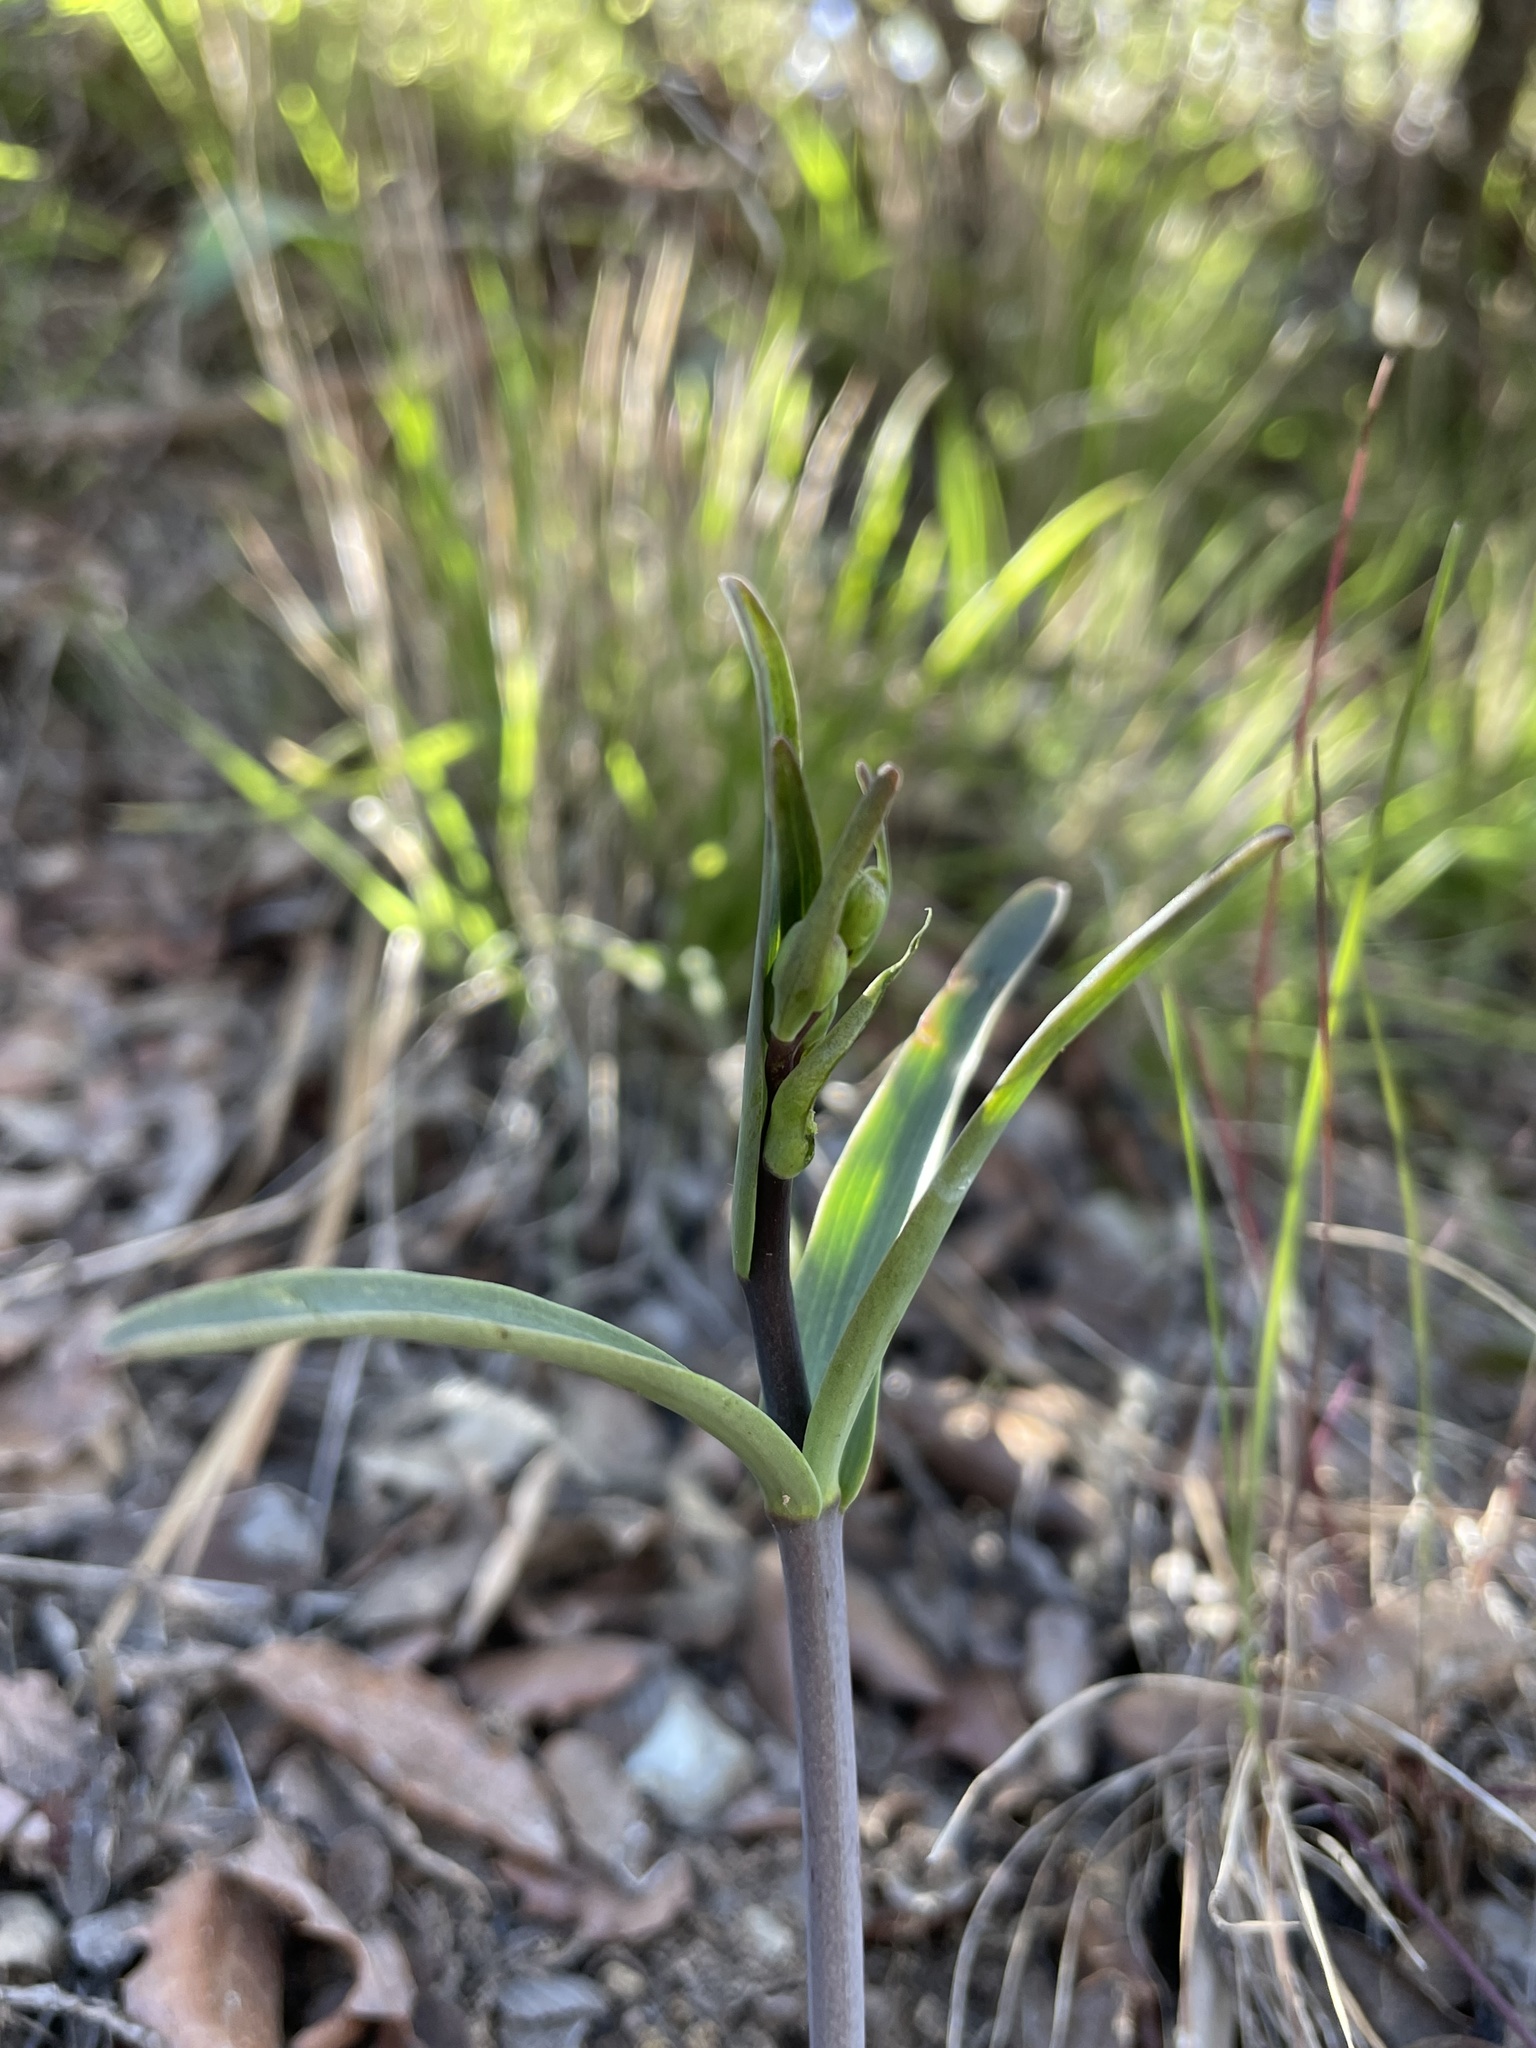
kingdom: Plantae
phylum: Tracheophyta
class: Liliopsida
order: Liliales
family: Liliaceae
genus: Fritillaria
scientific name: Fritillaria viridea
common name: San benito fritillary
